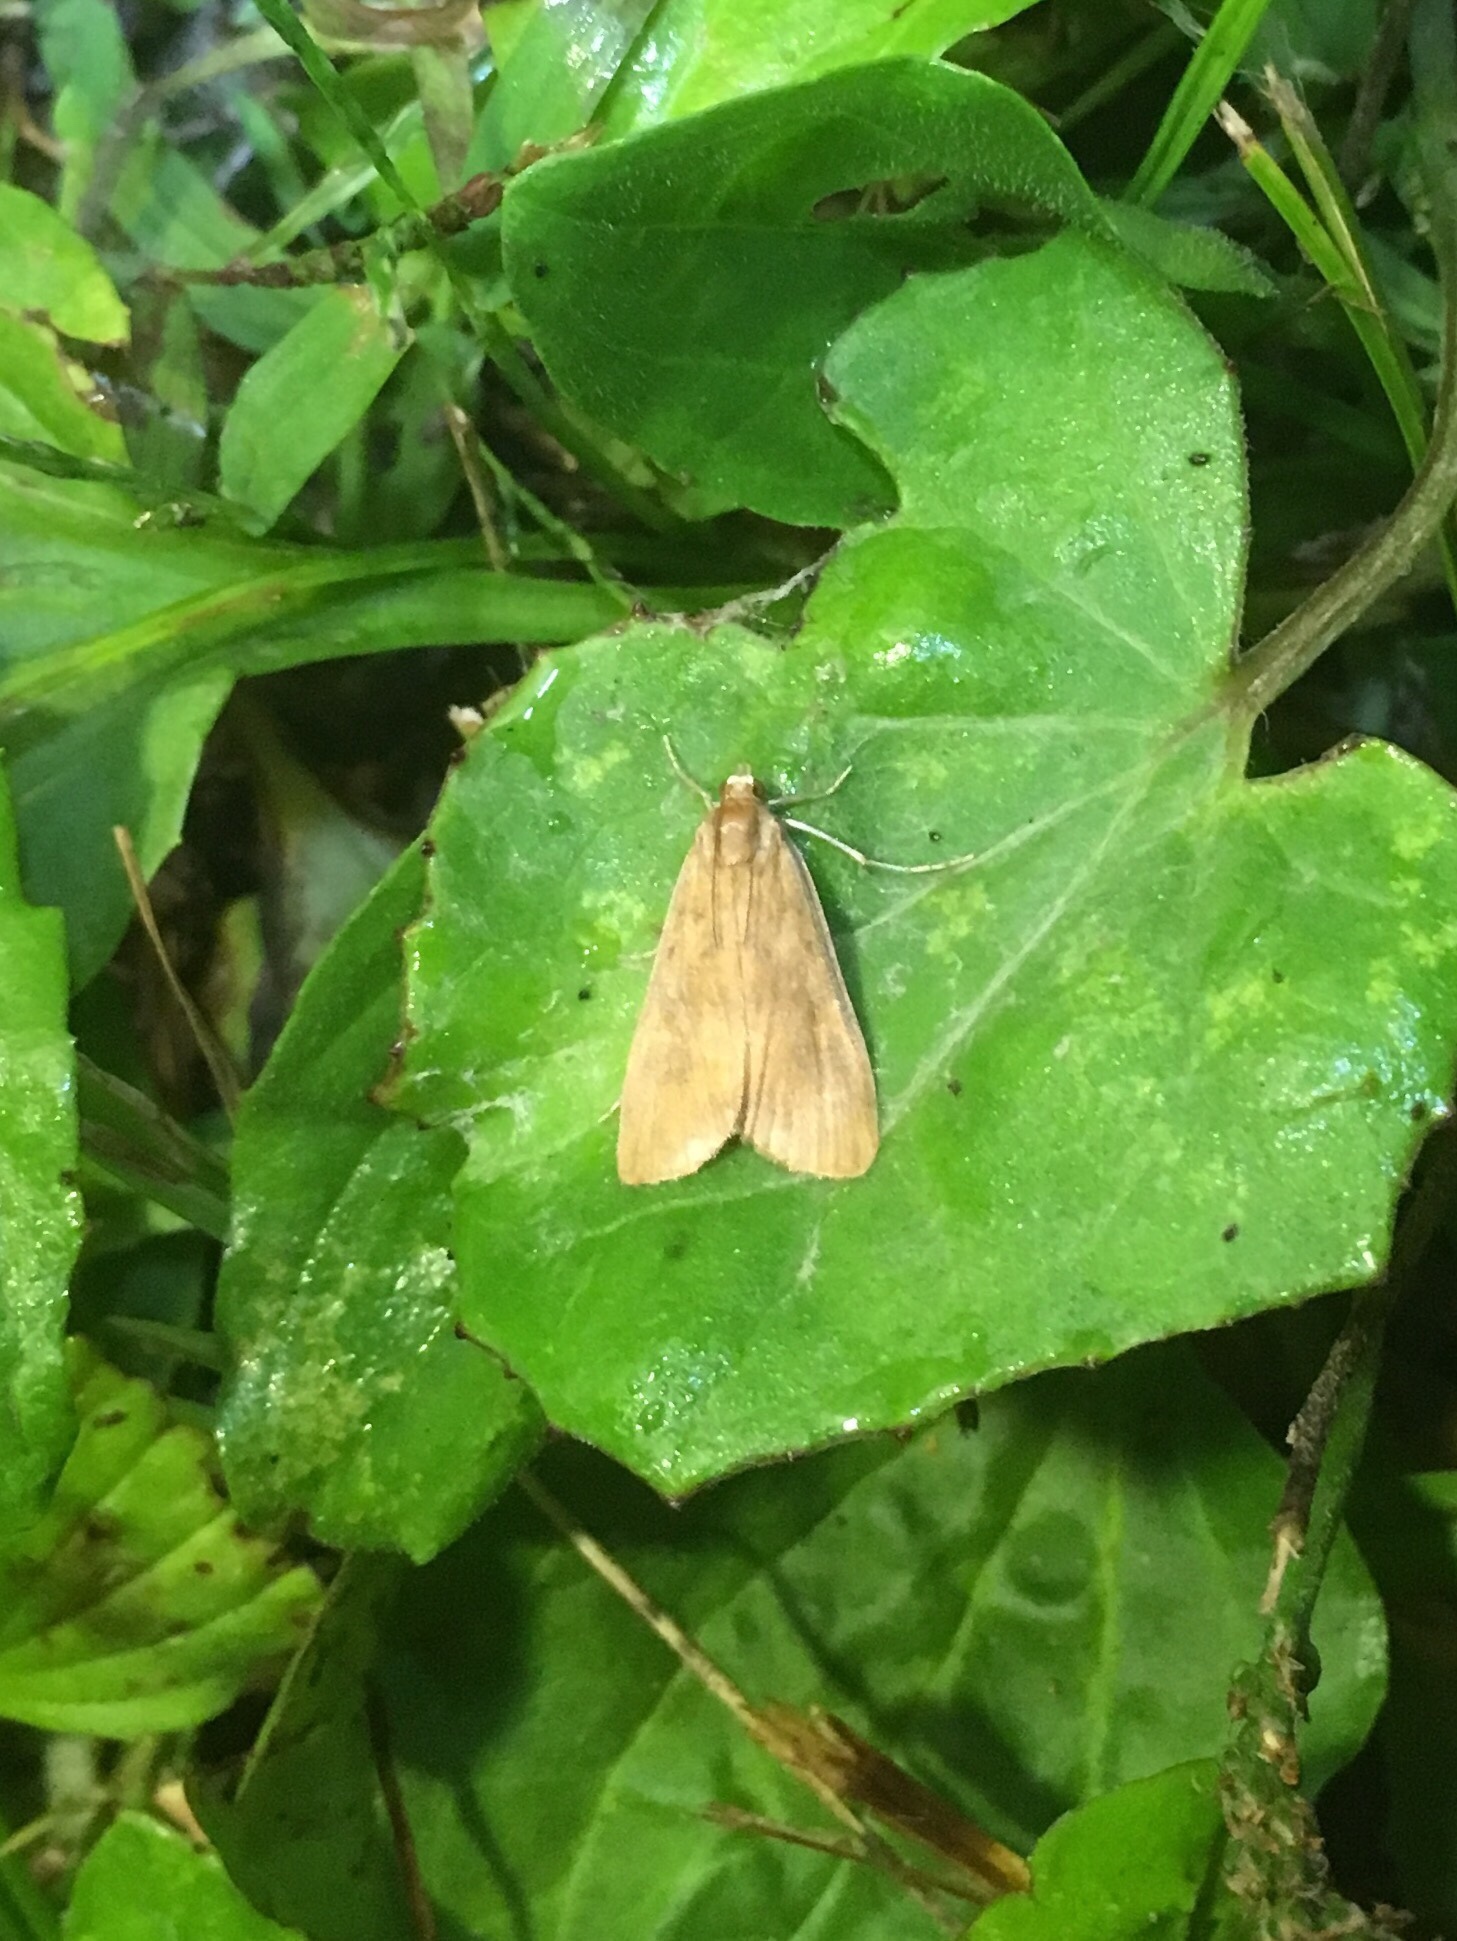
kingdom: Animalia
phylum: Arthropoda
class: Insecta
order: Lepidoptera
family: Crambidae
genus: Elophila
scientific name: Elophila gyralis
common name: Waterlily borer moth
